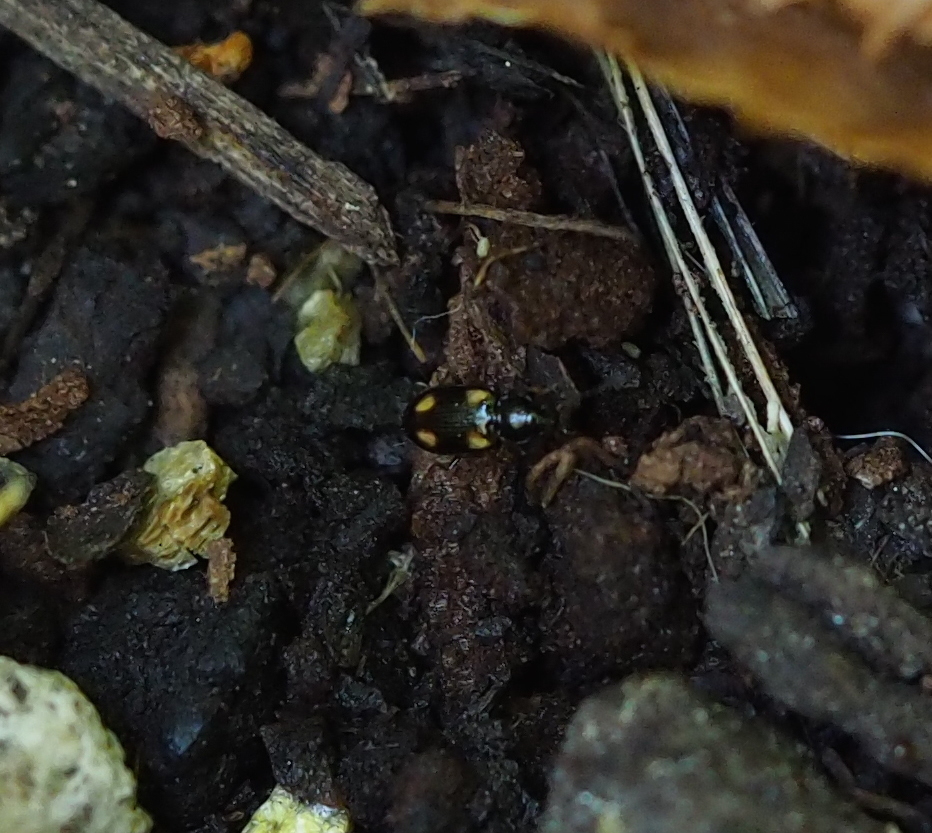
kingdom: Animalia
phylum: Arthropoda
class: Insecta
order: Coleoptera
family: Carabidae
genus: Pterostichus
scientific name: Pterostichus
